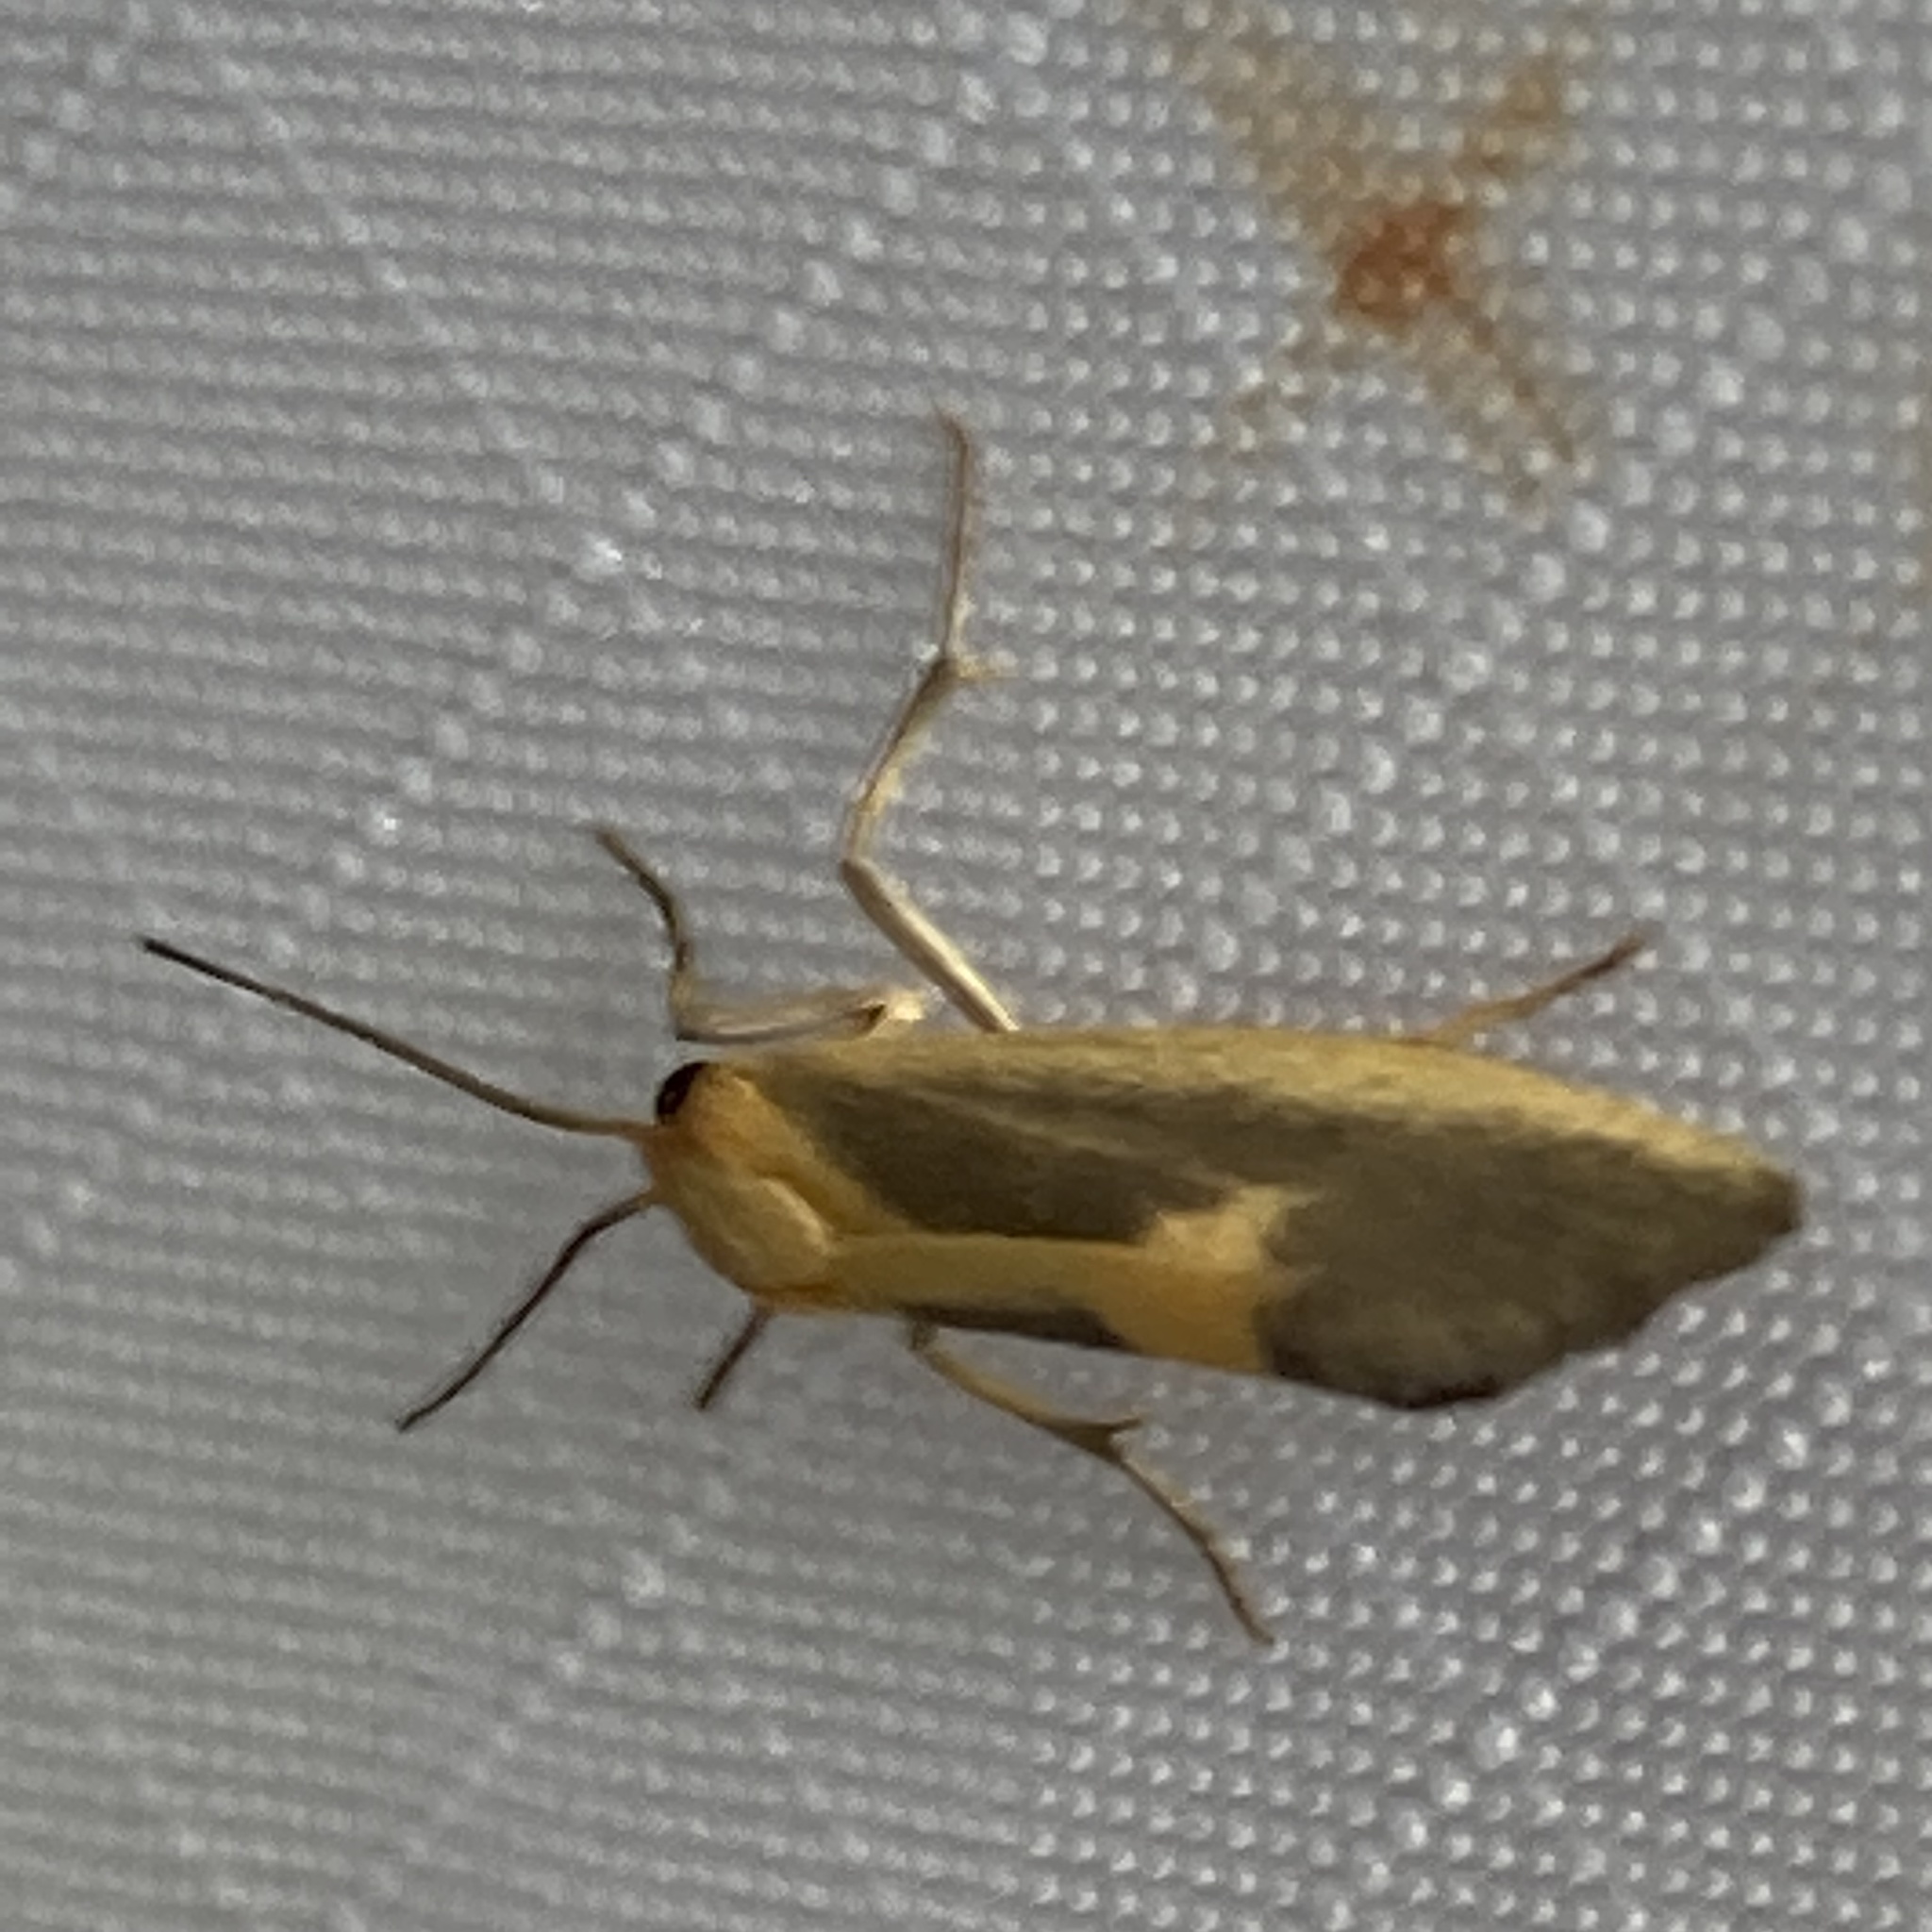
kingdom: Animalia
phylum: Arthropoda
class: Insecta
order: Lepidoptera
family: Erebidae
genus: Cisthene
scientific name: Cisthene plumbea
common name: Lead colored lichen moth
